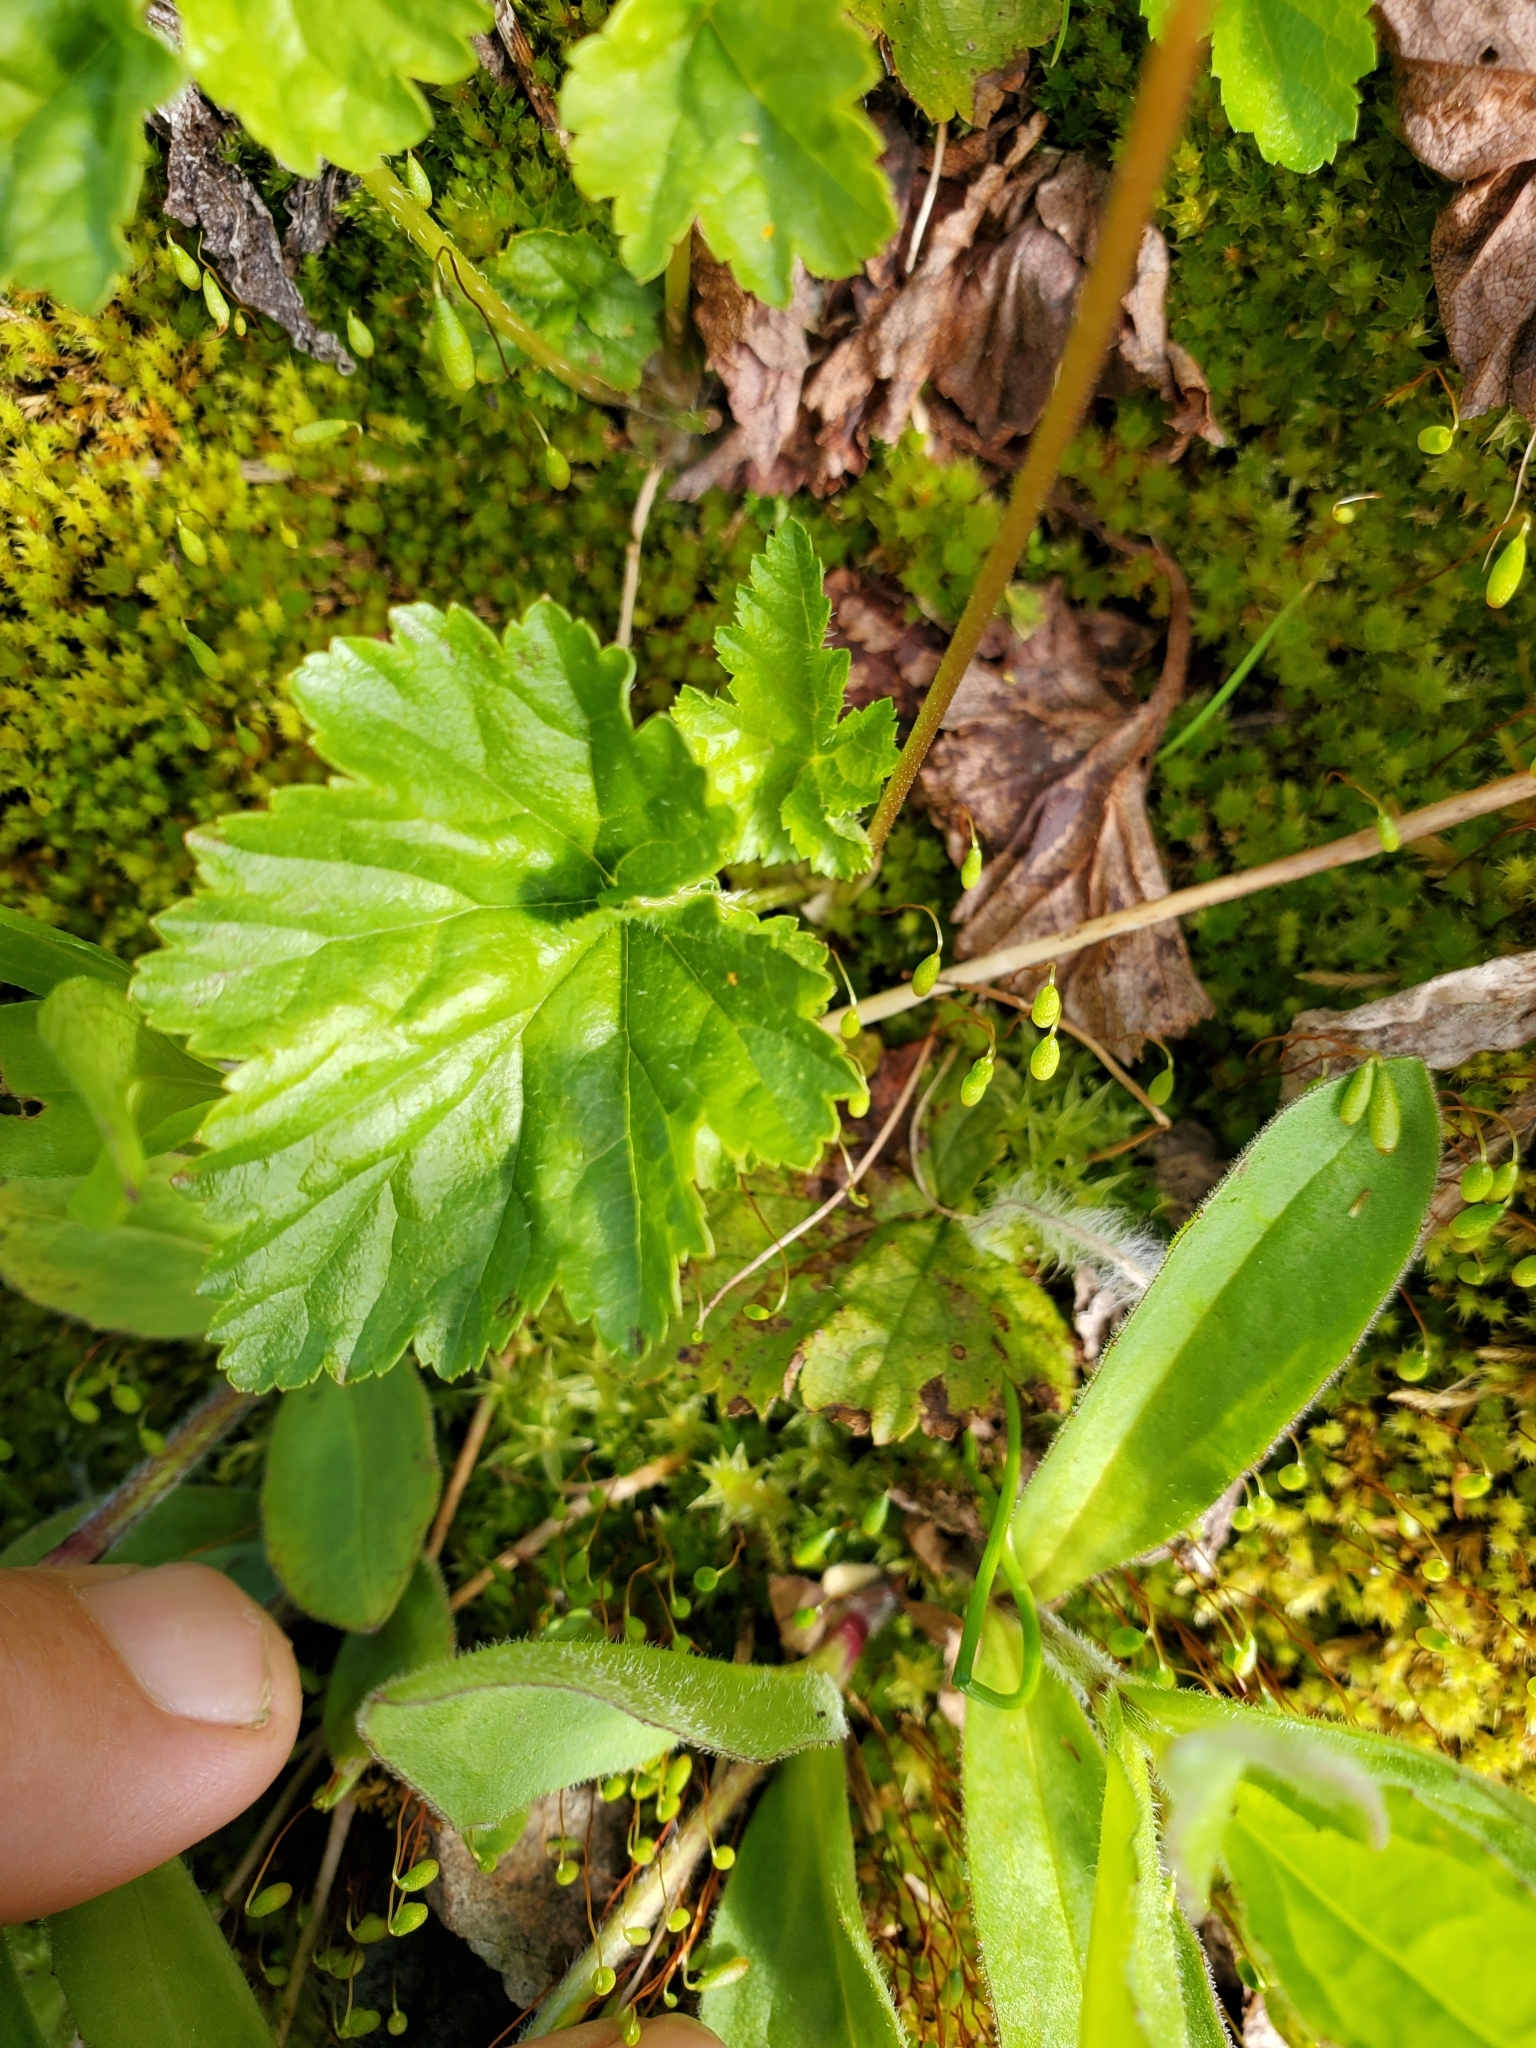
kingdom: Plantae
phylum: Tracheophyta
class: Magnoliopsida
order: Saxifragales
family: Saxifragaceae
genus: Pectiantia
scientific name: Pectiantia pentandra
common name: Alpine bishop's-cap
